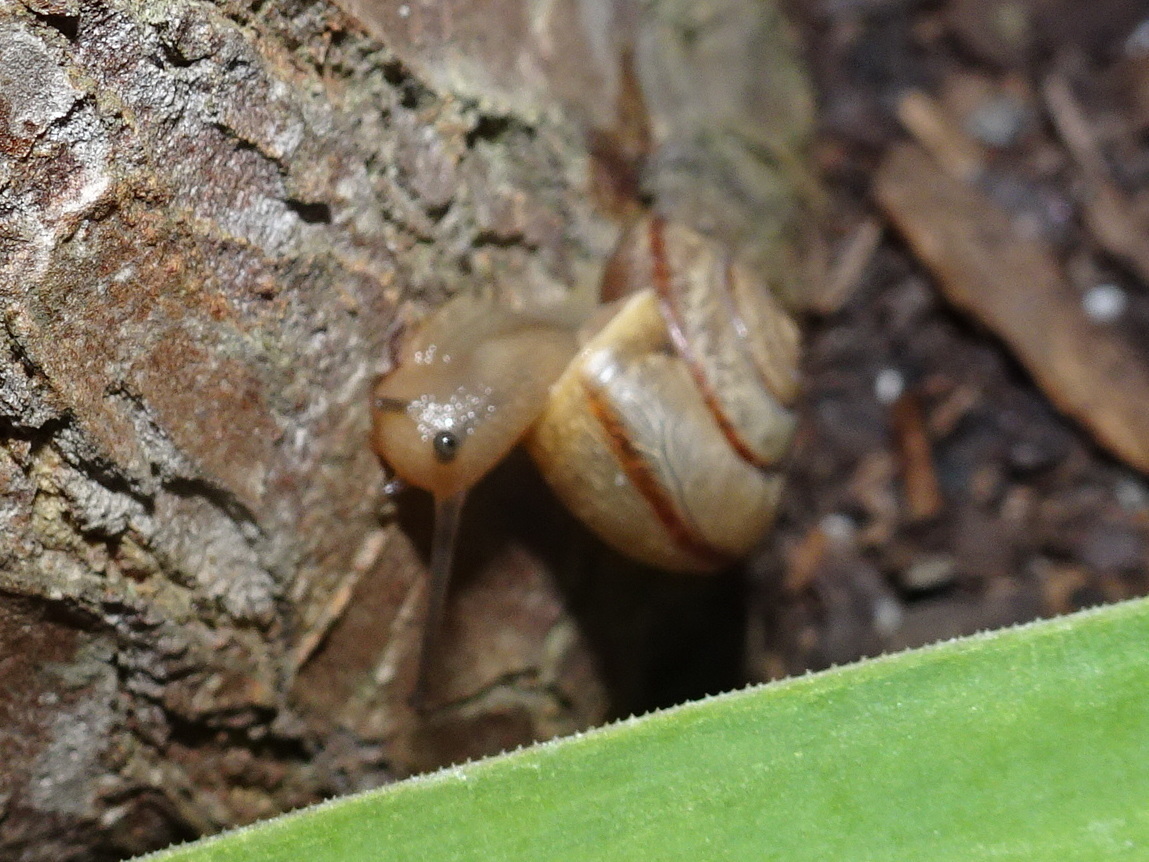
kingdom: Animalia
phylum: Mollusca
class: Gastropoda
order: Stylommatophora
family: Camaenidae
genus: Bradybaena
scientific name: Bradybaena similaris
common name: Asian trampsnail
